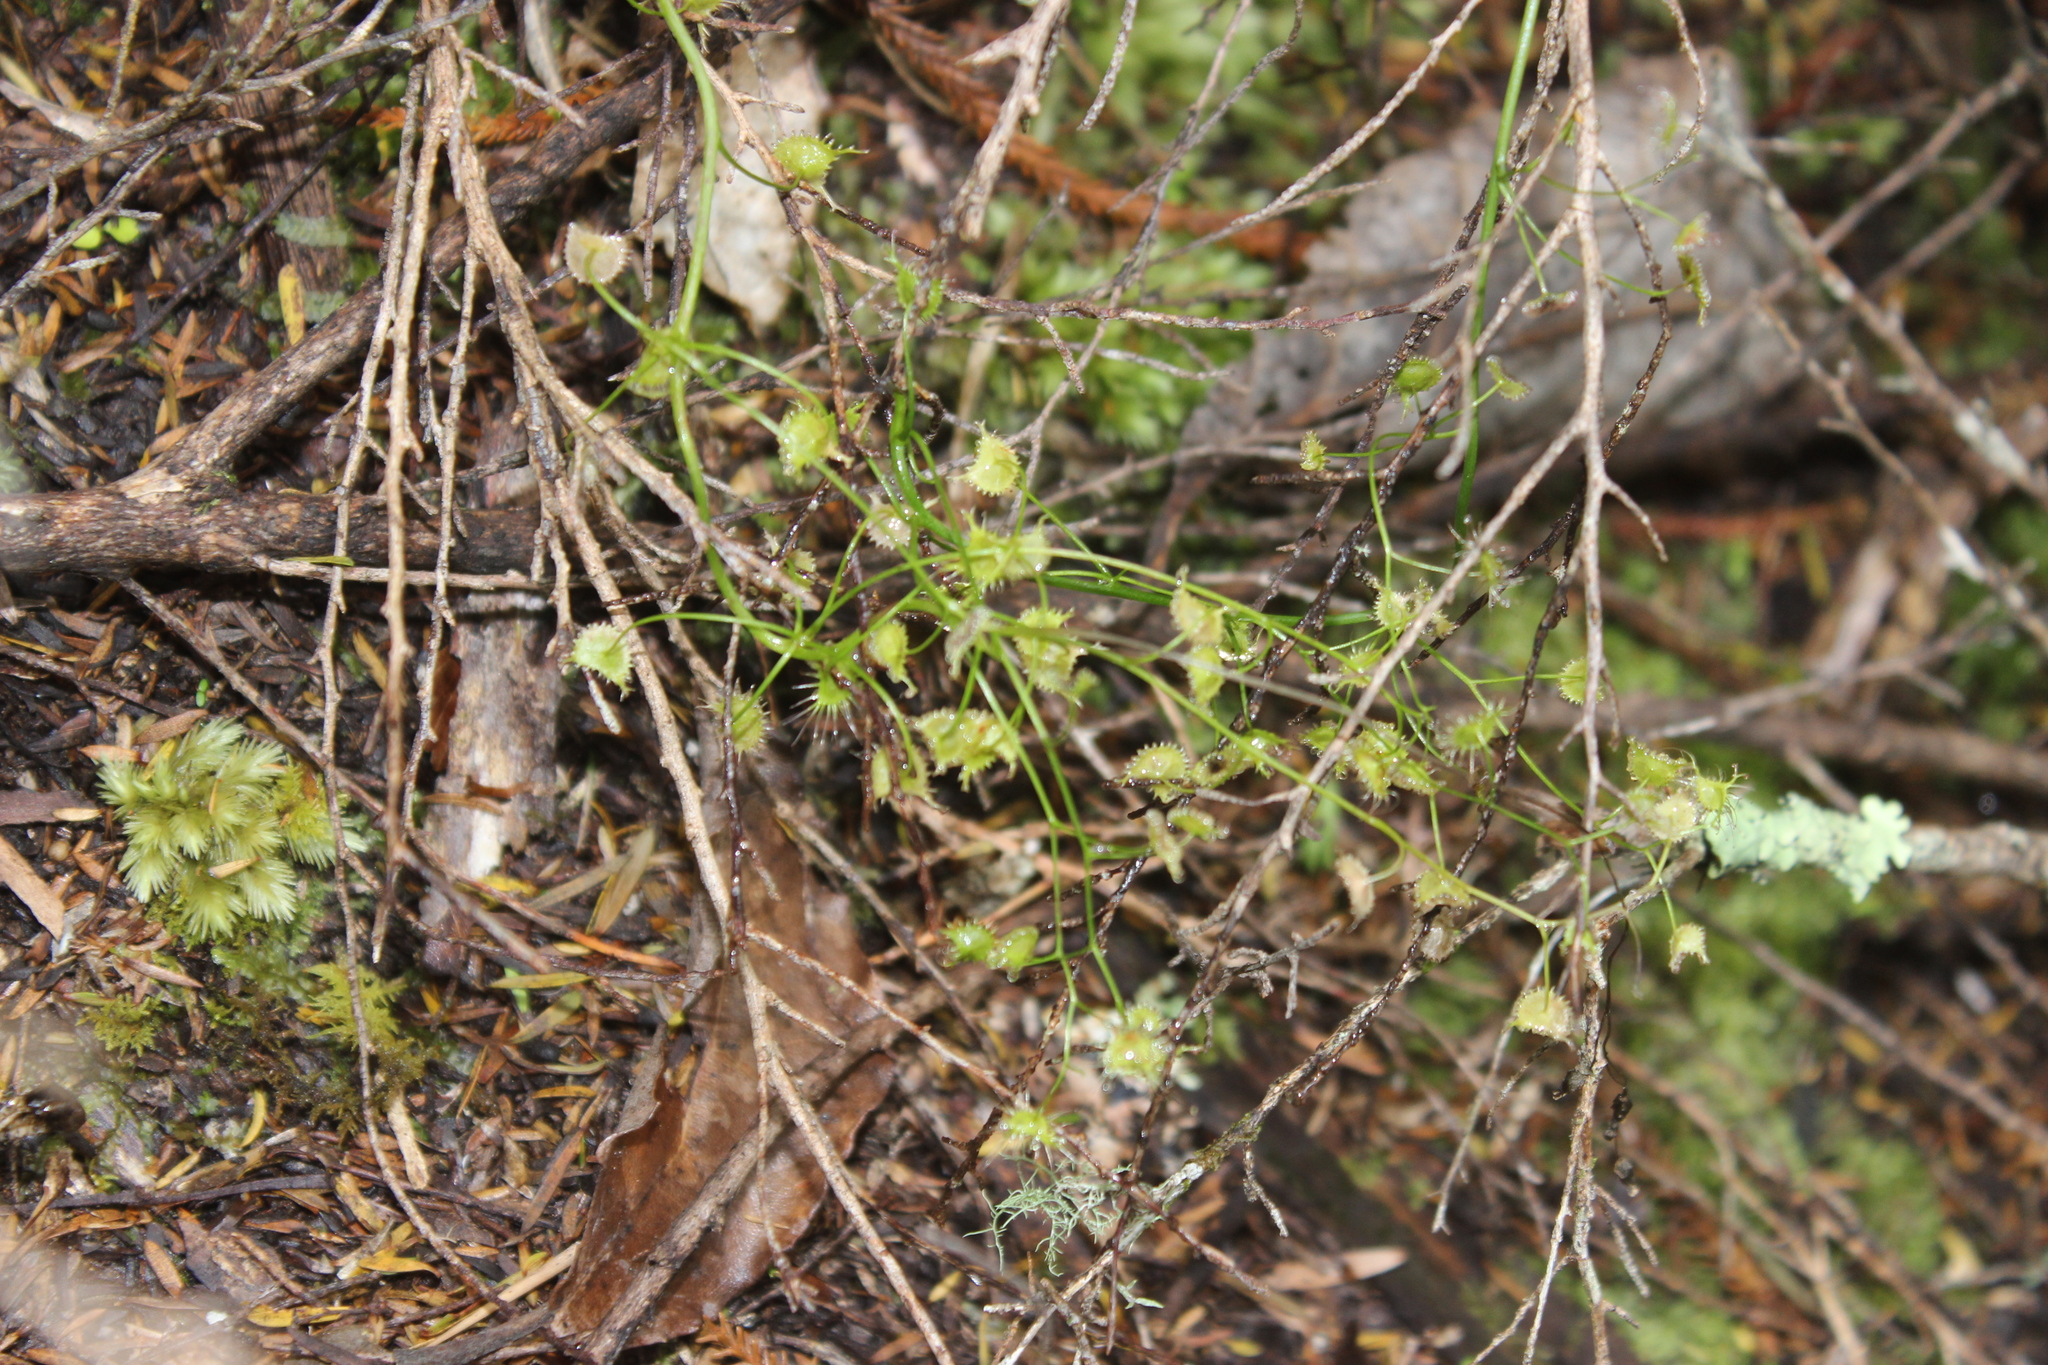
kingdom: Plantae
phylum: Tracheophyta
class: Magnoliopsida
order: Caryophyllales
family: Droseraceae
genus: Drosera
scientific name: Drosera peltata
